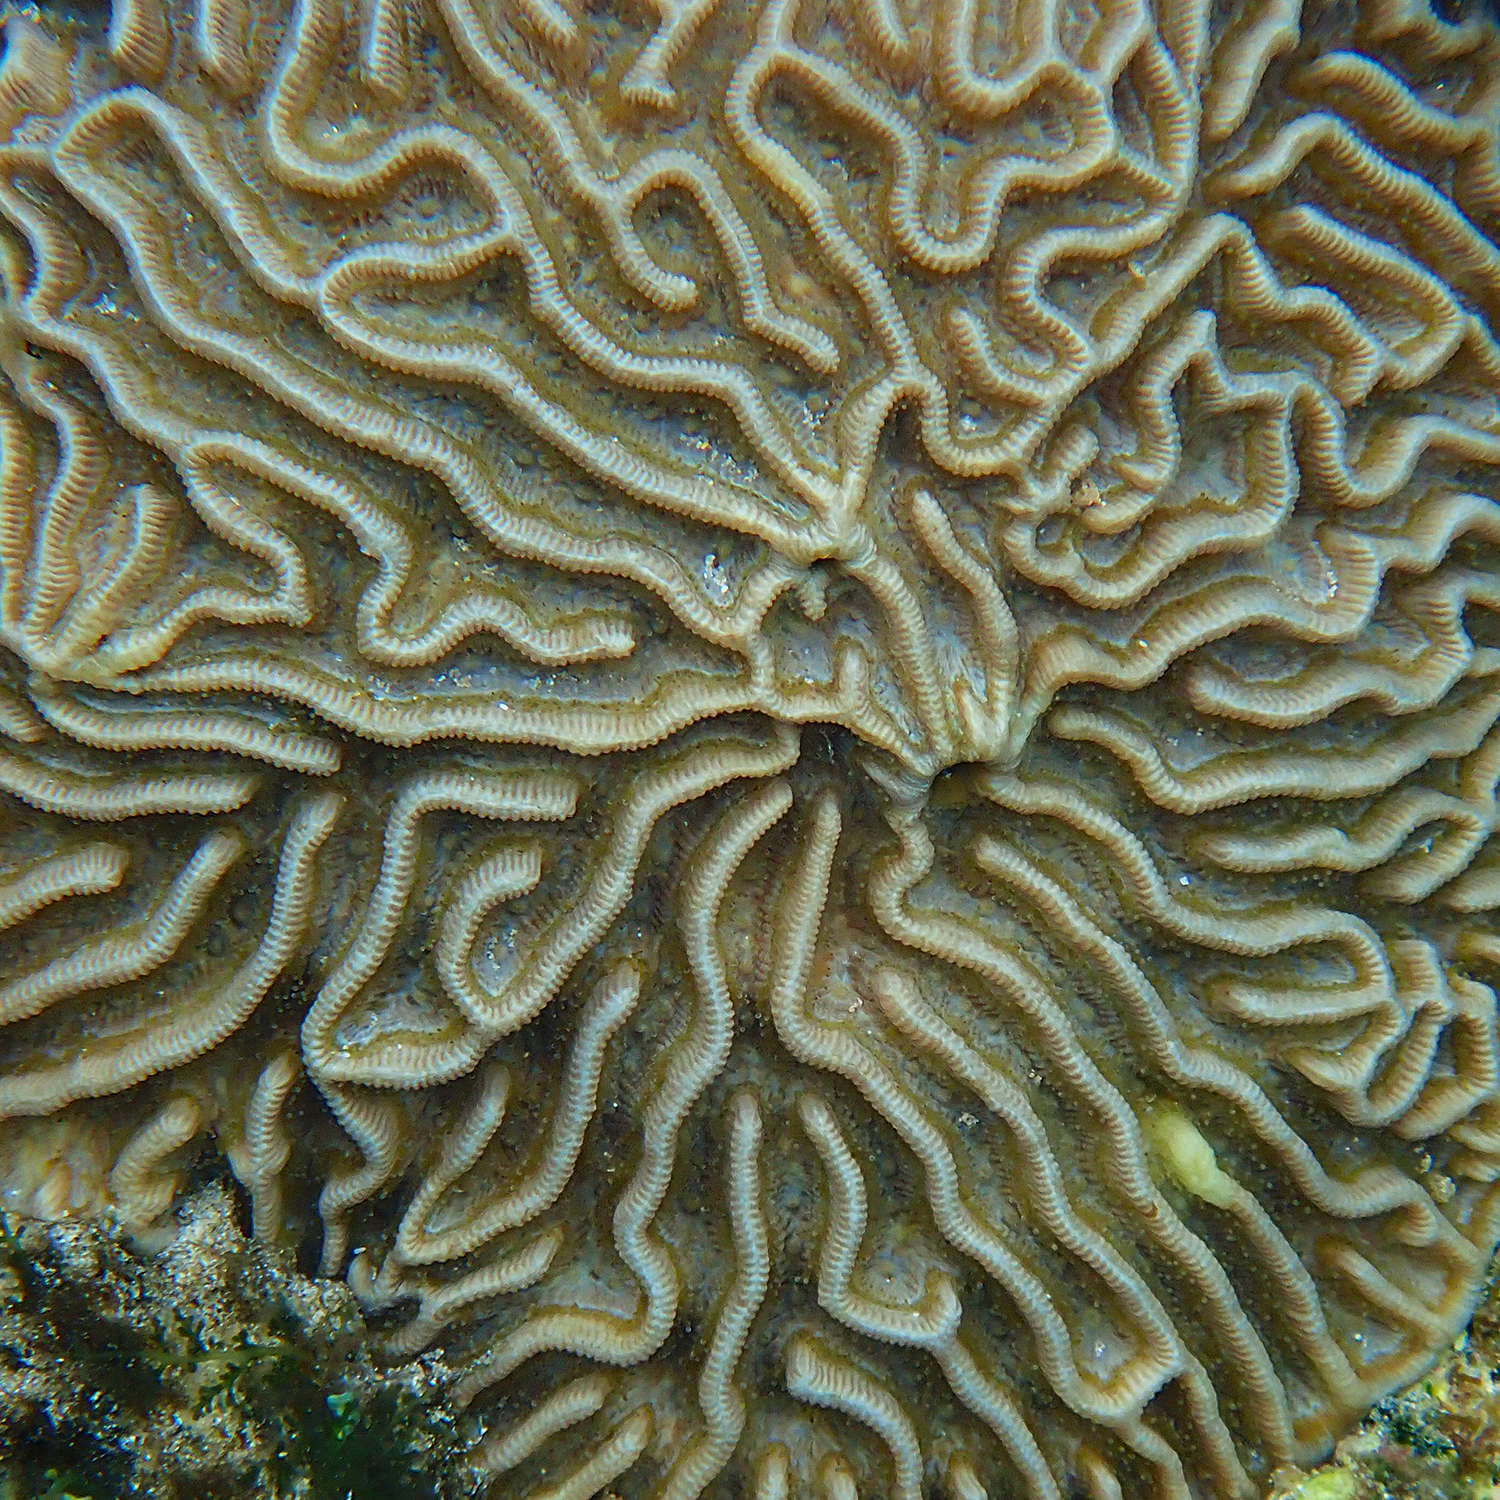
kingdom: Animalia
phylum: Cnidaria
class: Anthozoa
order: Scleractinia
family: Merulinidae
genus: Paragoniastrea
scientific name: Paragoniastrea australensis
